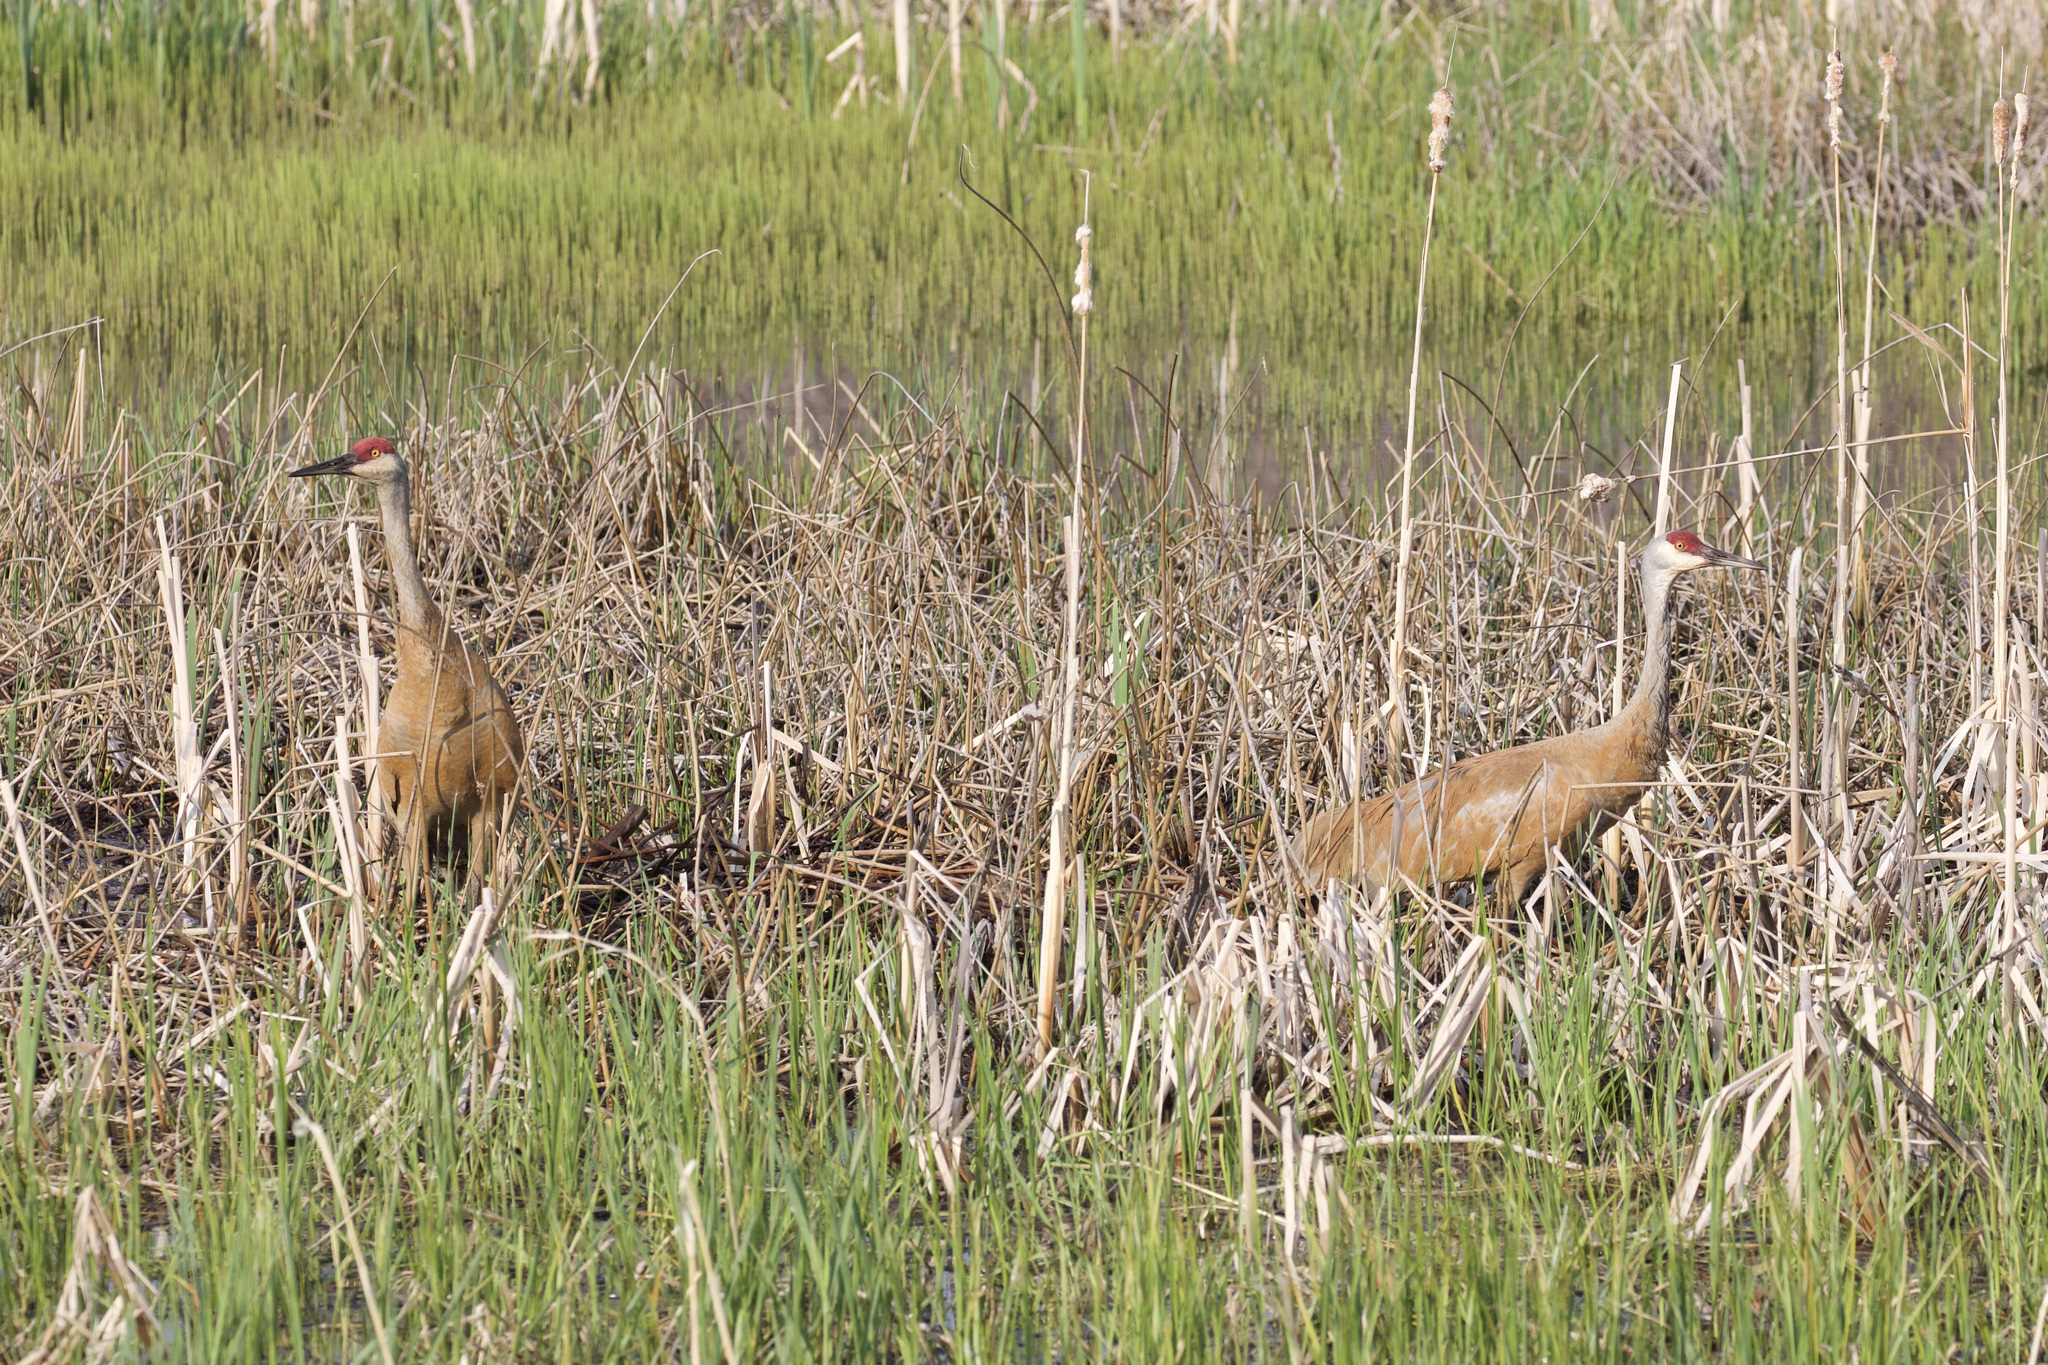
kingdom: Animalia
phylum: Chordata
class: Aves
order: Gruiformes
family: Gruidae
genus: Grus
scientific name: Grus canadensis
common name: Sandhill crane
